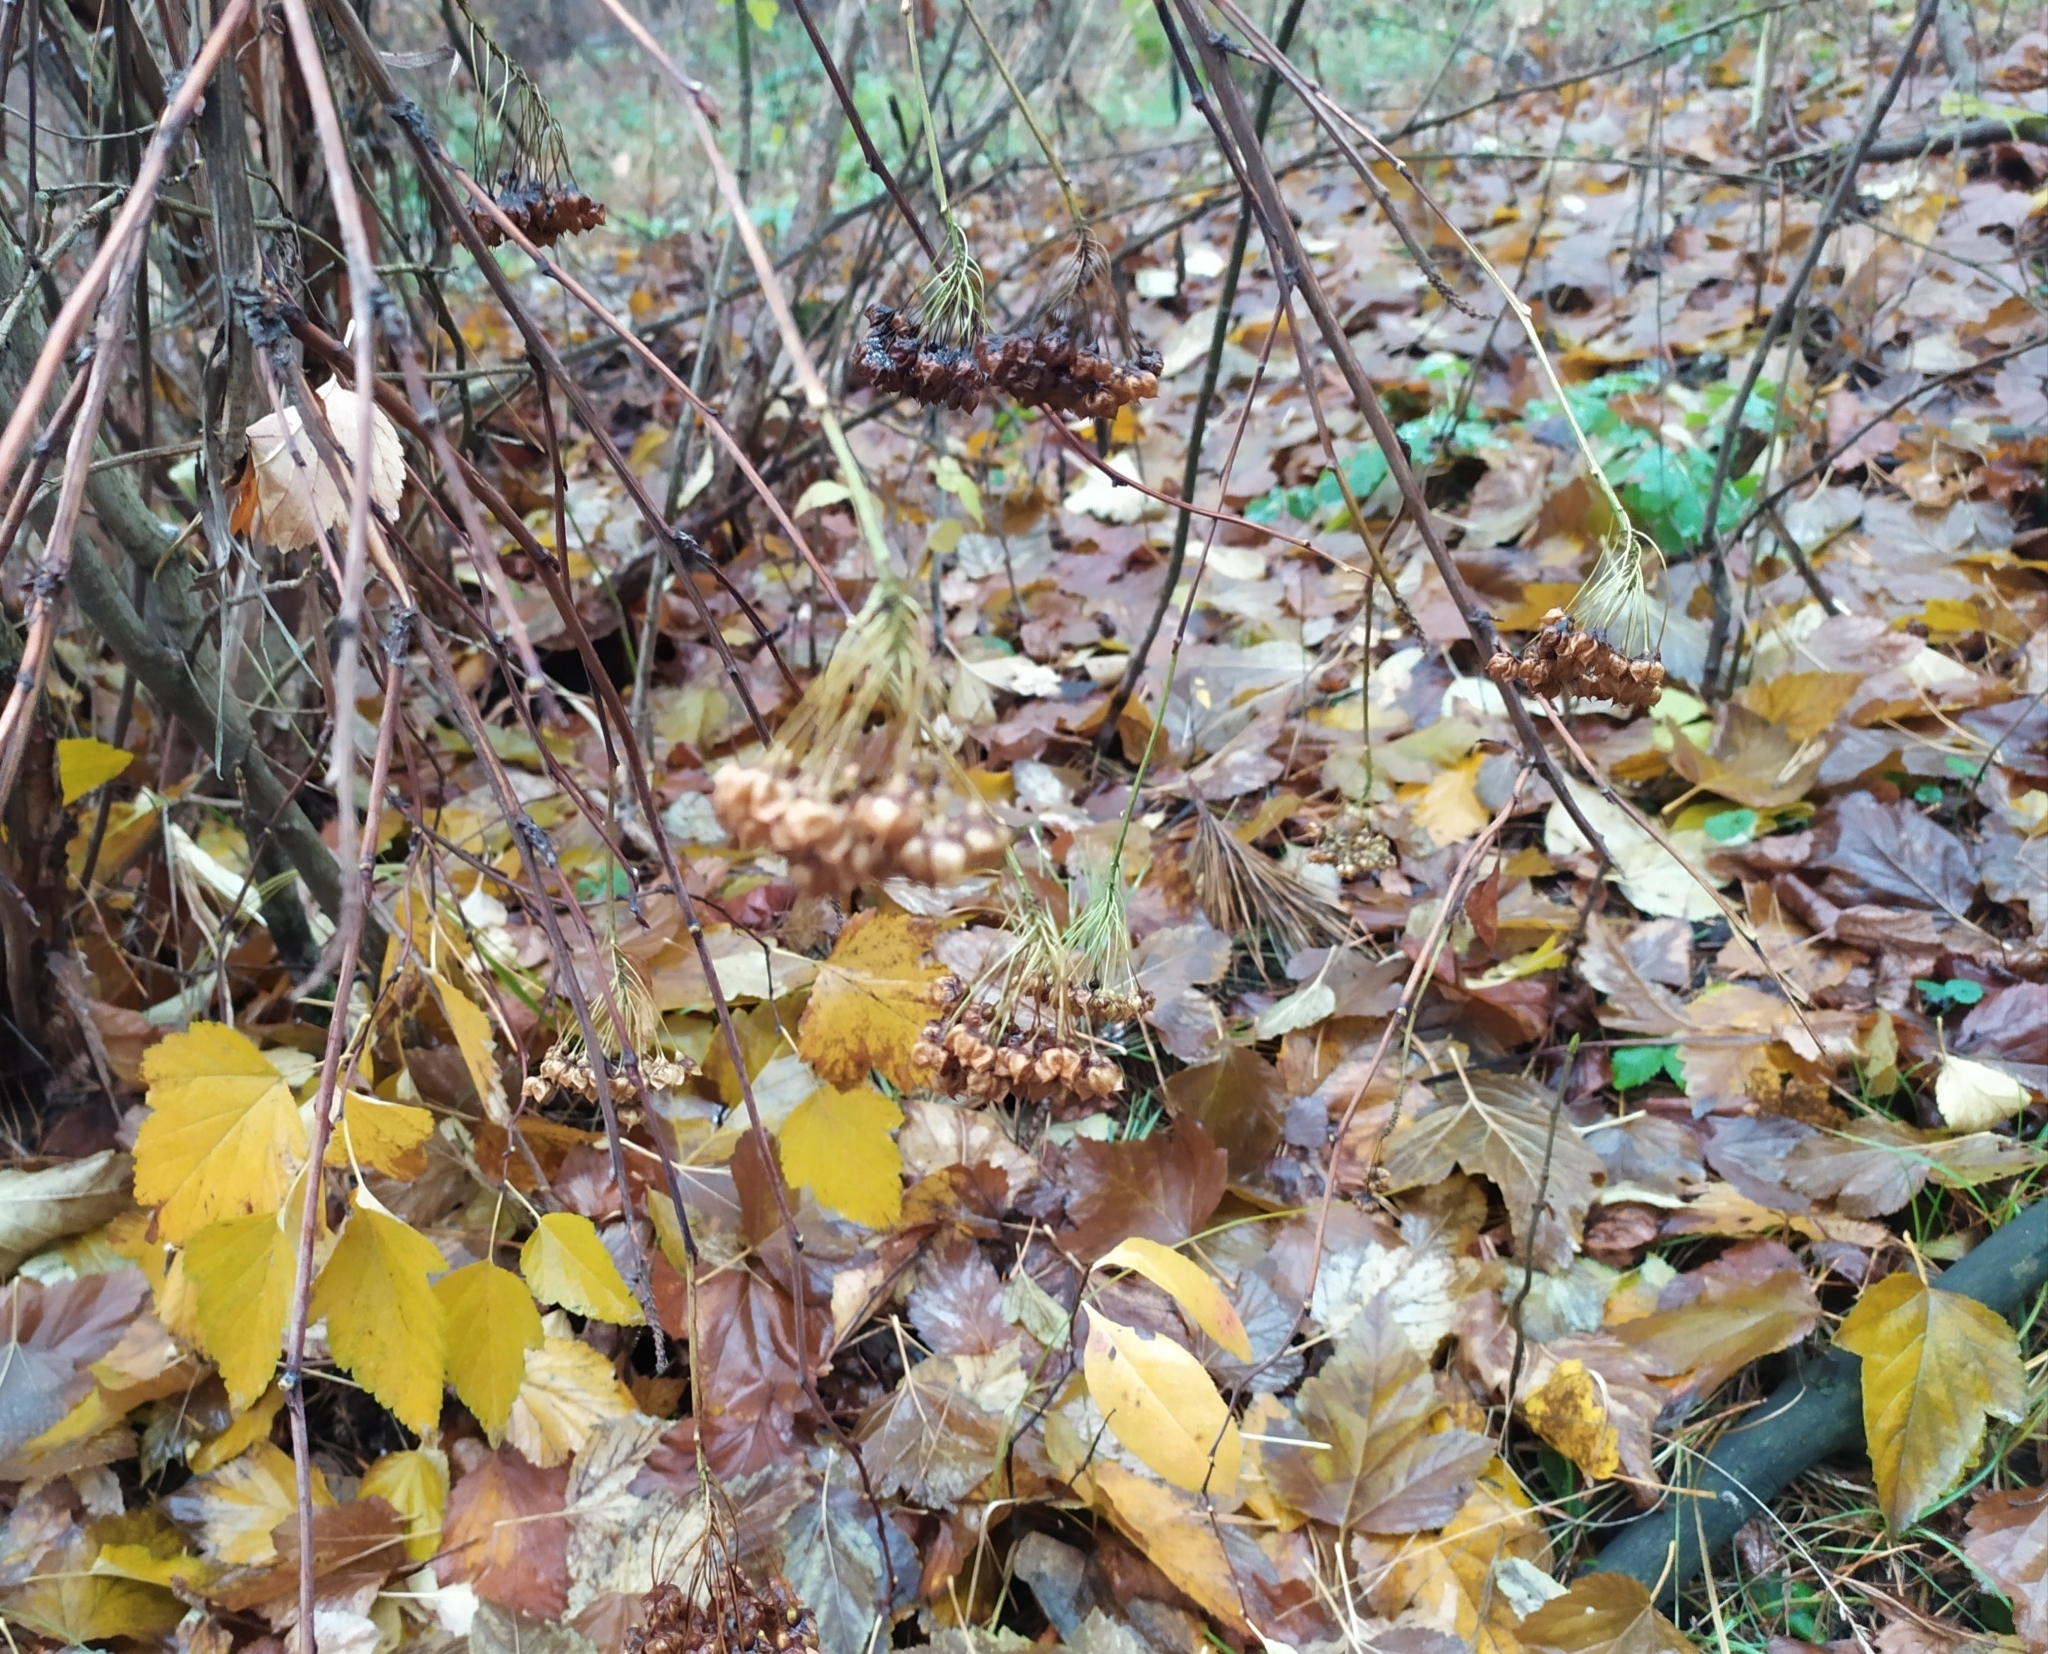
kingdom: Plantae
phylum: Tracheophyta
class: Magnoliopsida
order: Rosales
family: Rosaceae
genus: Physocarpus
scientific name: Physocarpus opulifolius
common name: Ninebark
